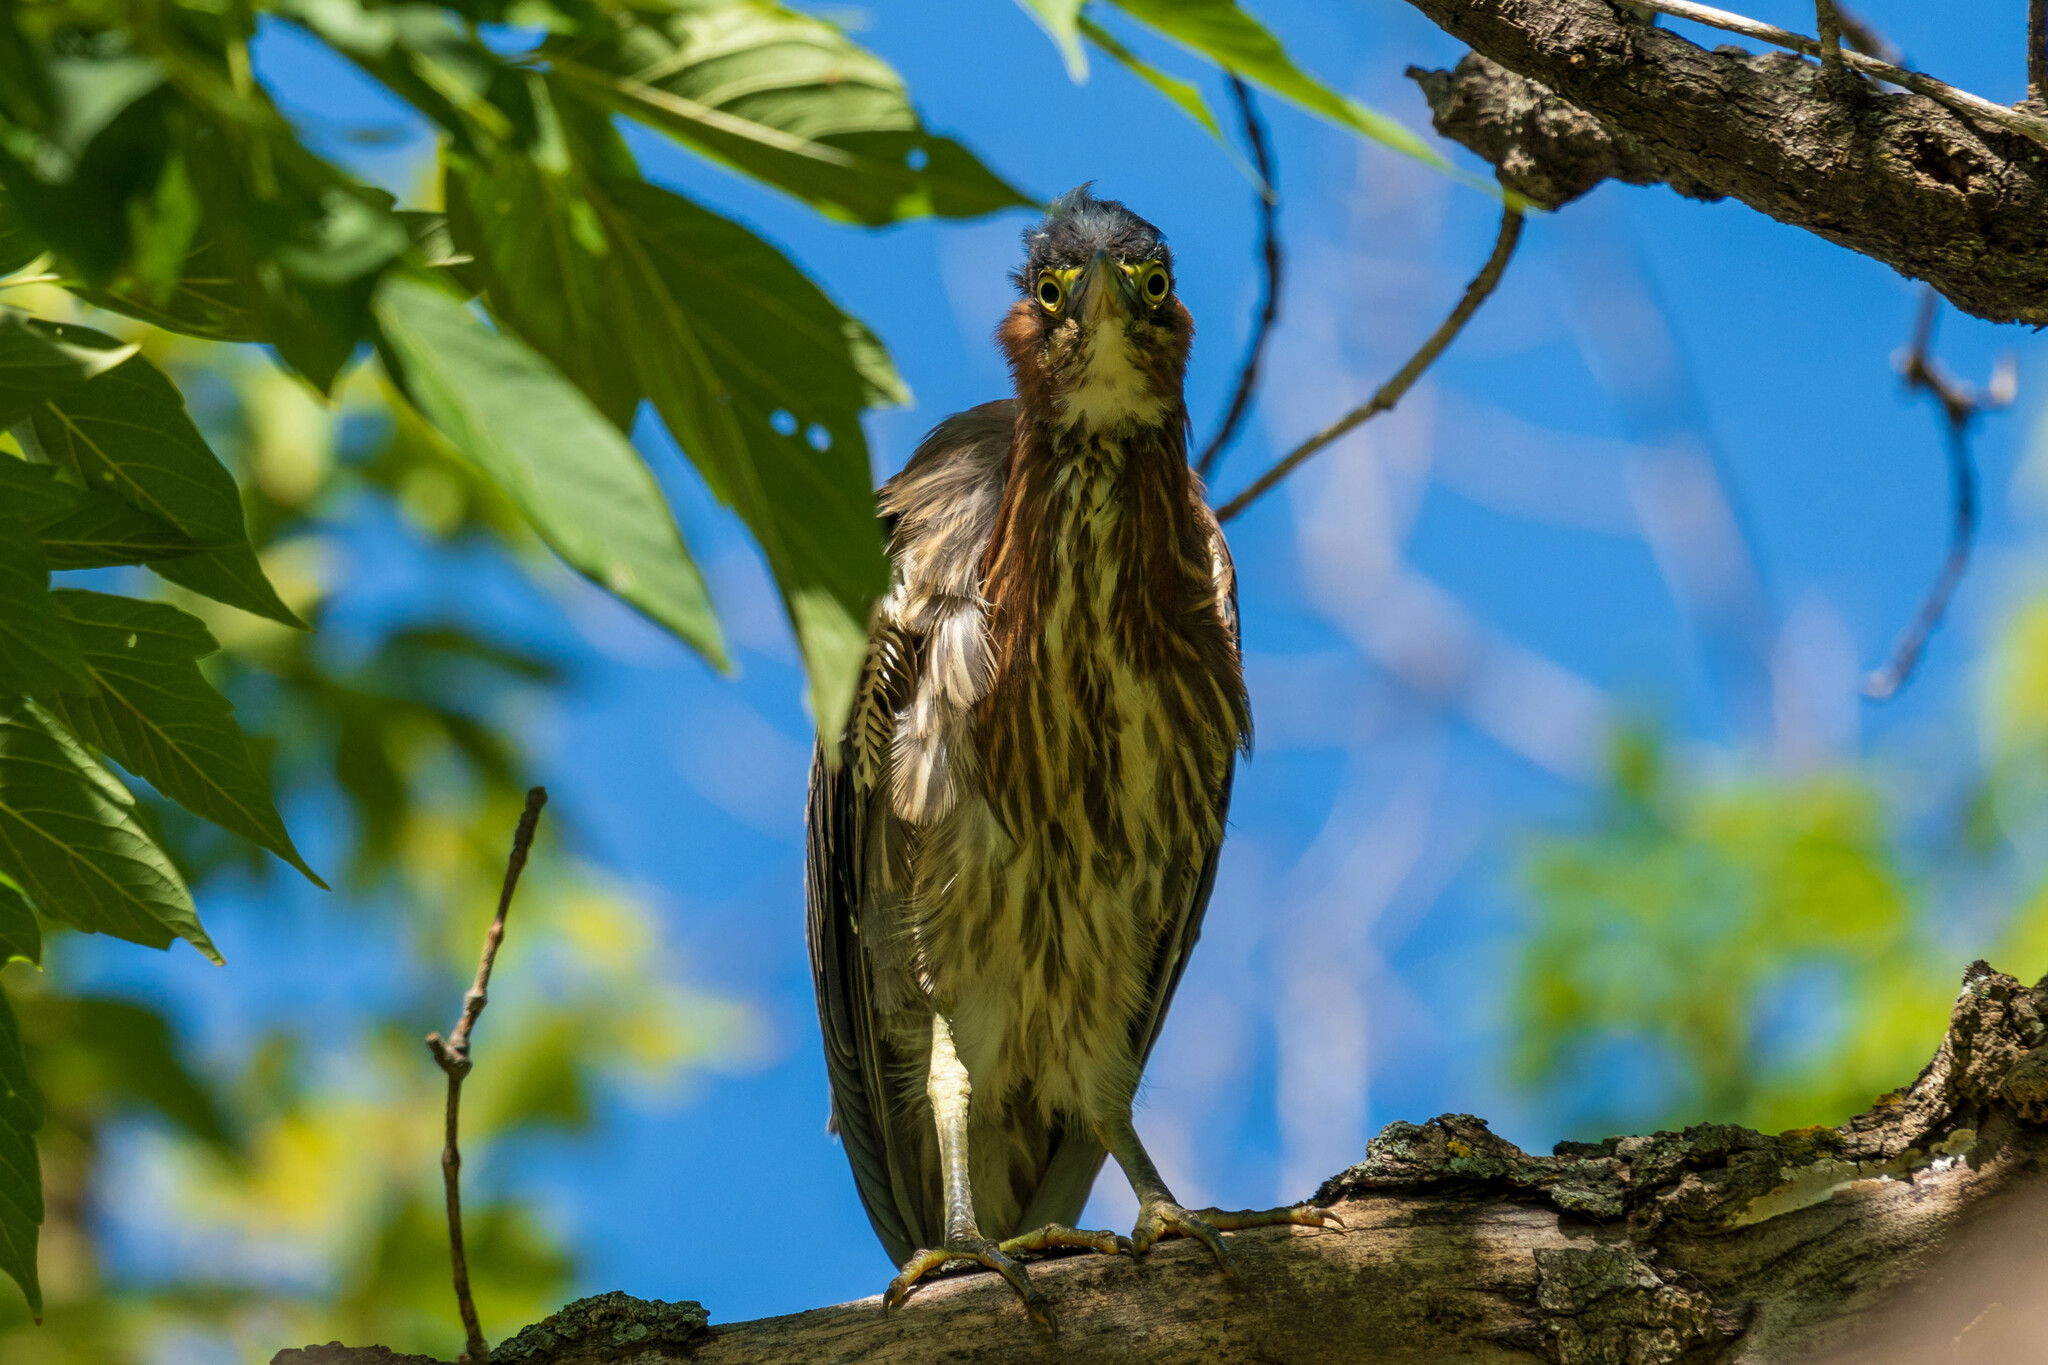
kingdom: Animalia
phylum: Chordata
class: Aves
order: Pelecaniformes
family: Ardeidae
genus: Butorides
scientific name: Butorides virescens
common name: Green heron
